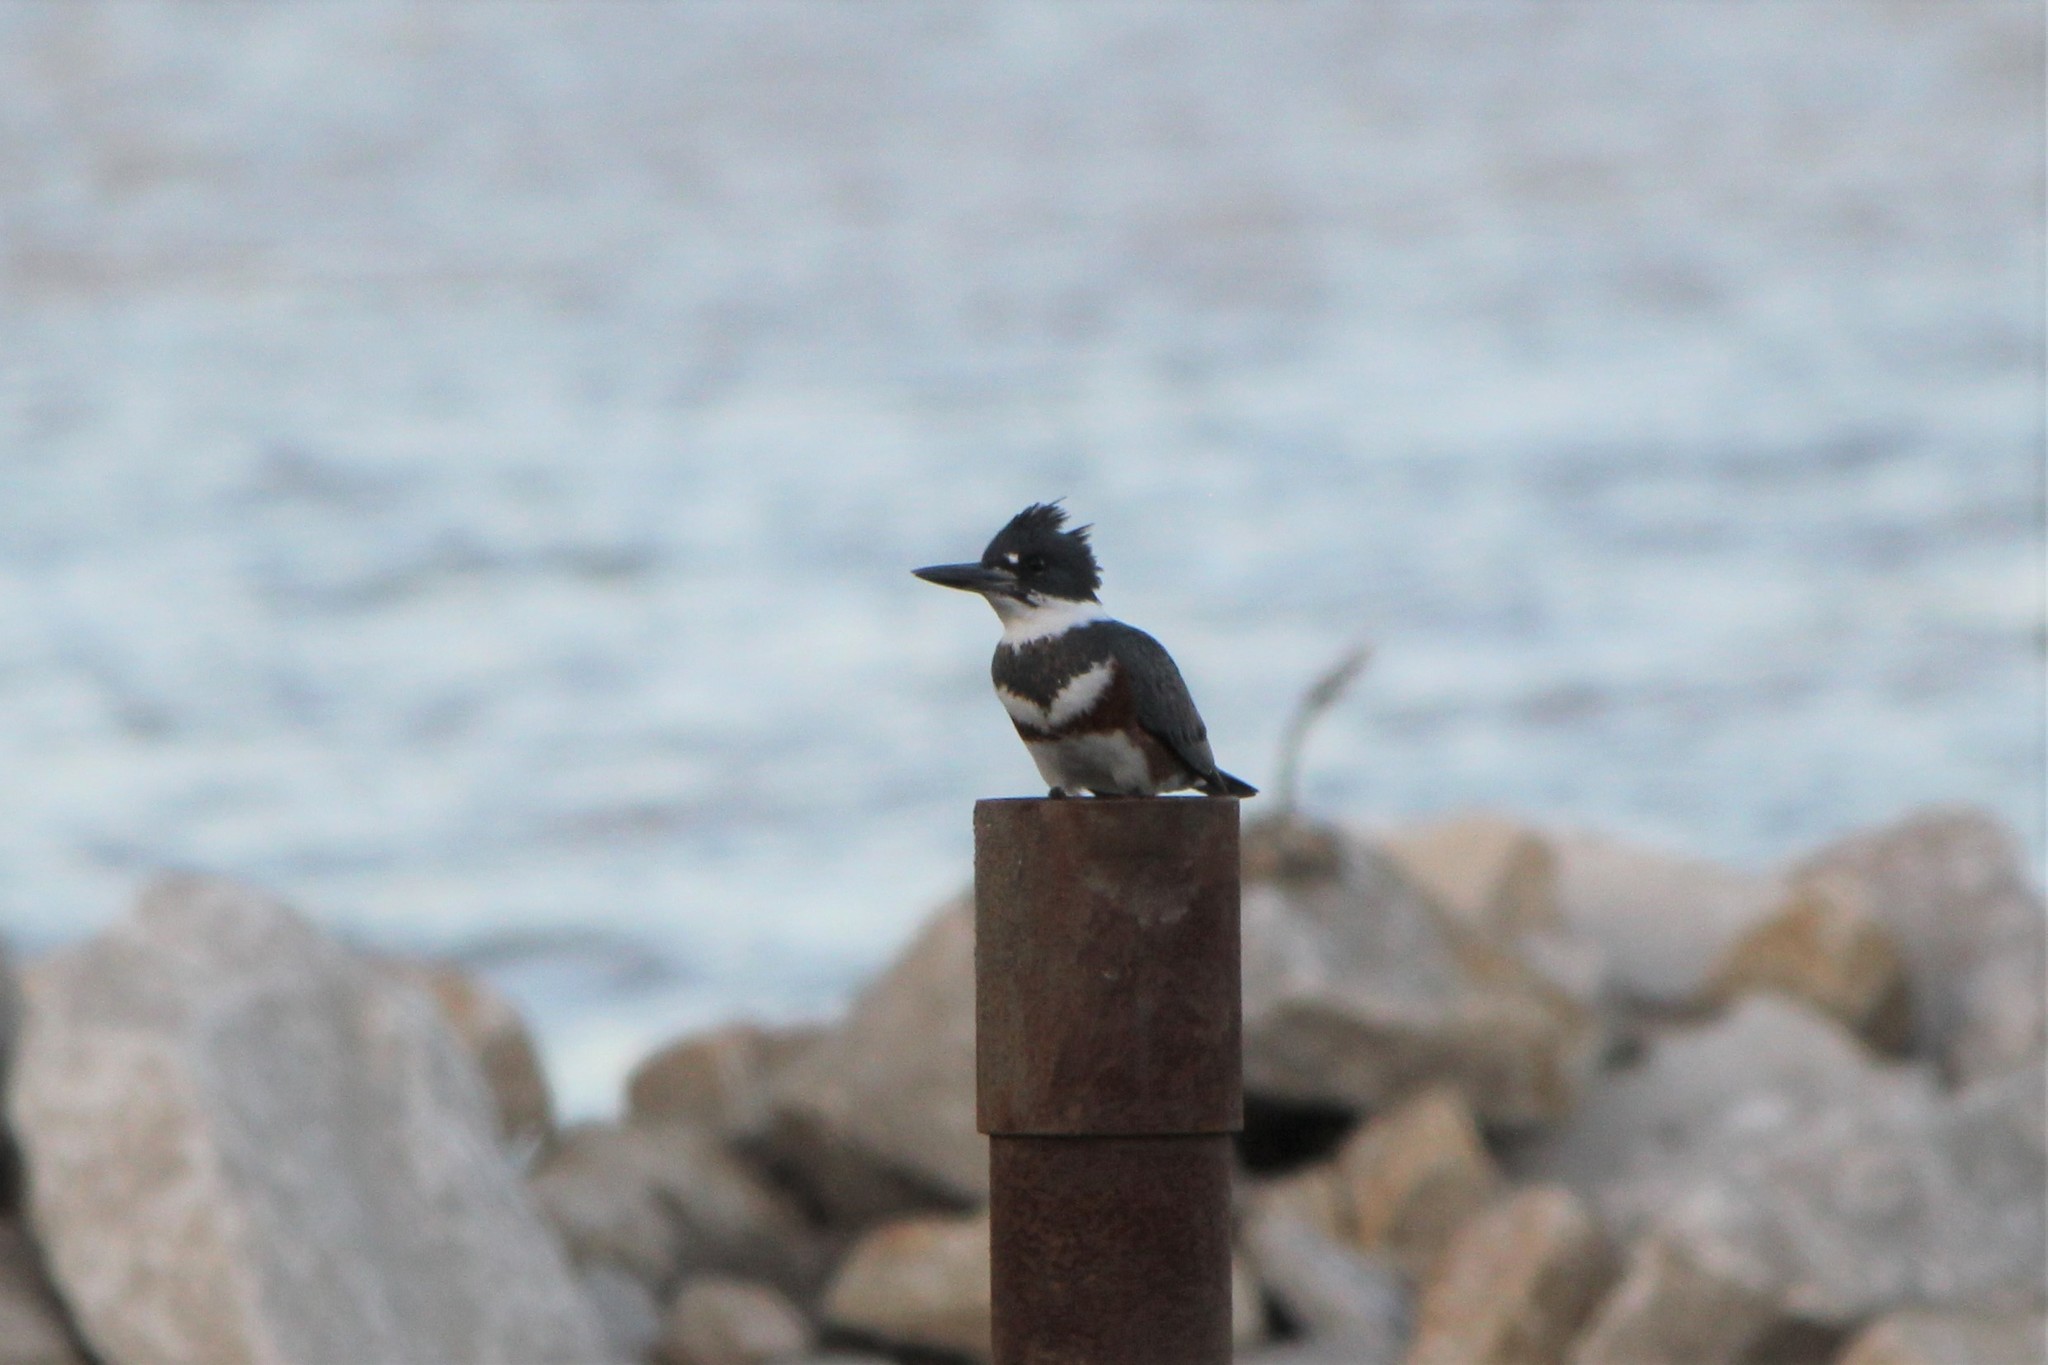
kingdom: Animalia
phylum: Chordata
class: Aves
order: Coraciiformes
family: Alcedinidae
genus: Megaceryle
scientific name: Megaceryle alcyon
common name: Belted kingfisher
